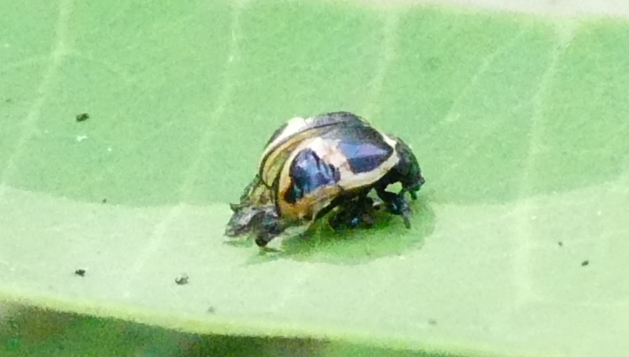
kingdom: Animalia
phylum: Arthropoda
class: Insecta
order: Coleoptera
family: Chrysomelidae
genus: Labidomera
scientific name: Labidomera clivicollis
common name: Swamp milkweed leaf beetle
